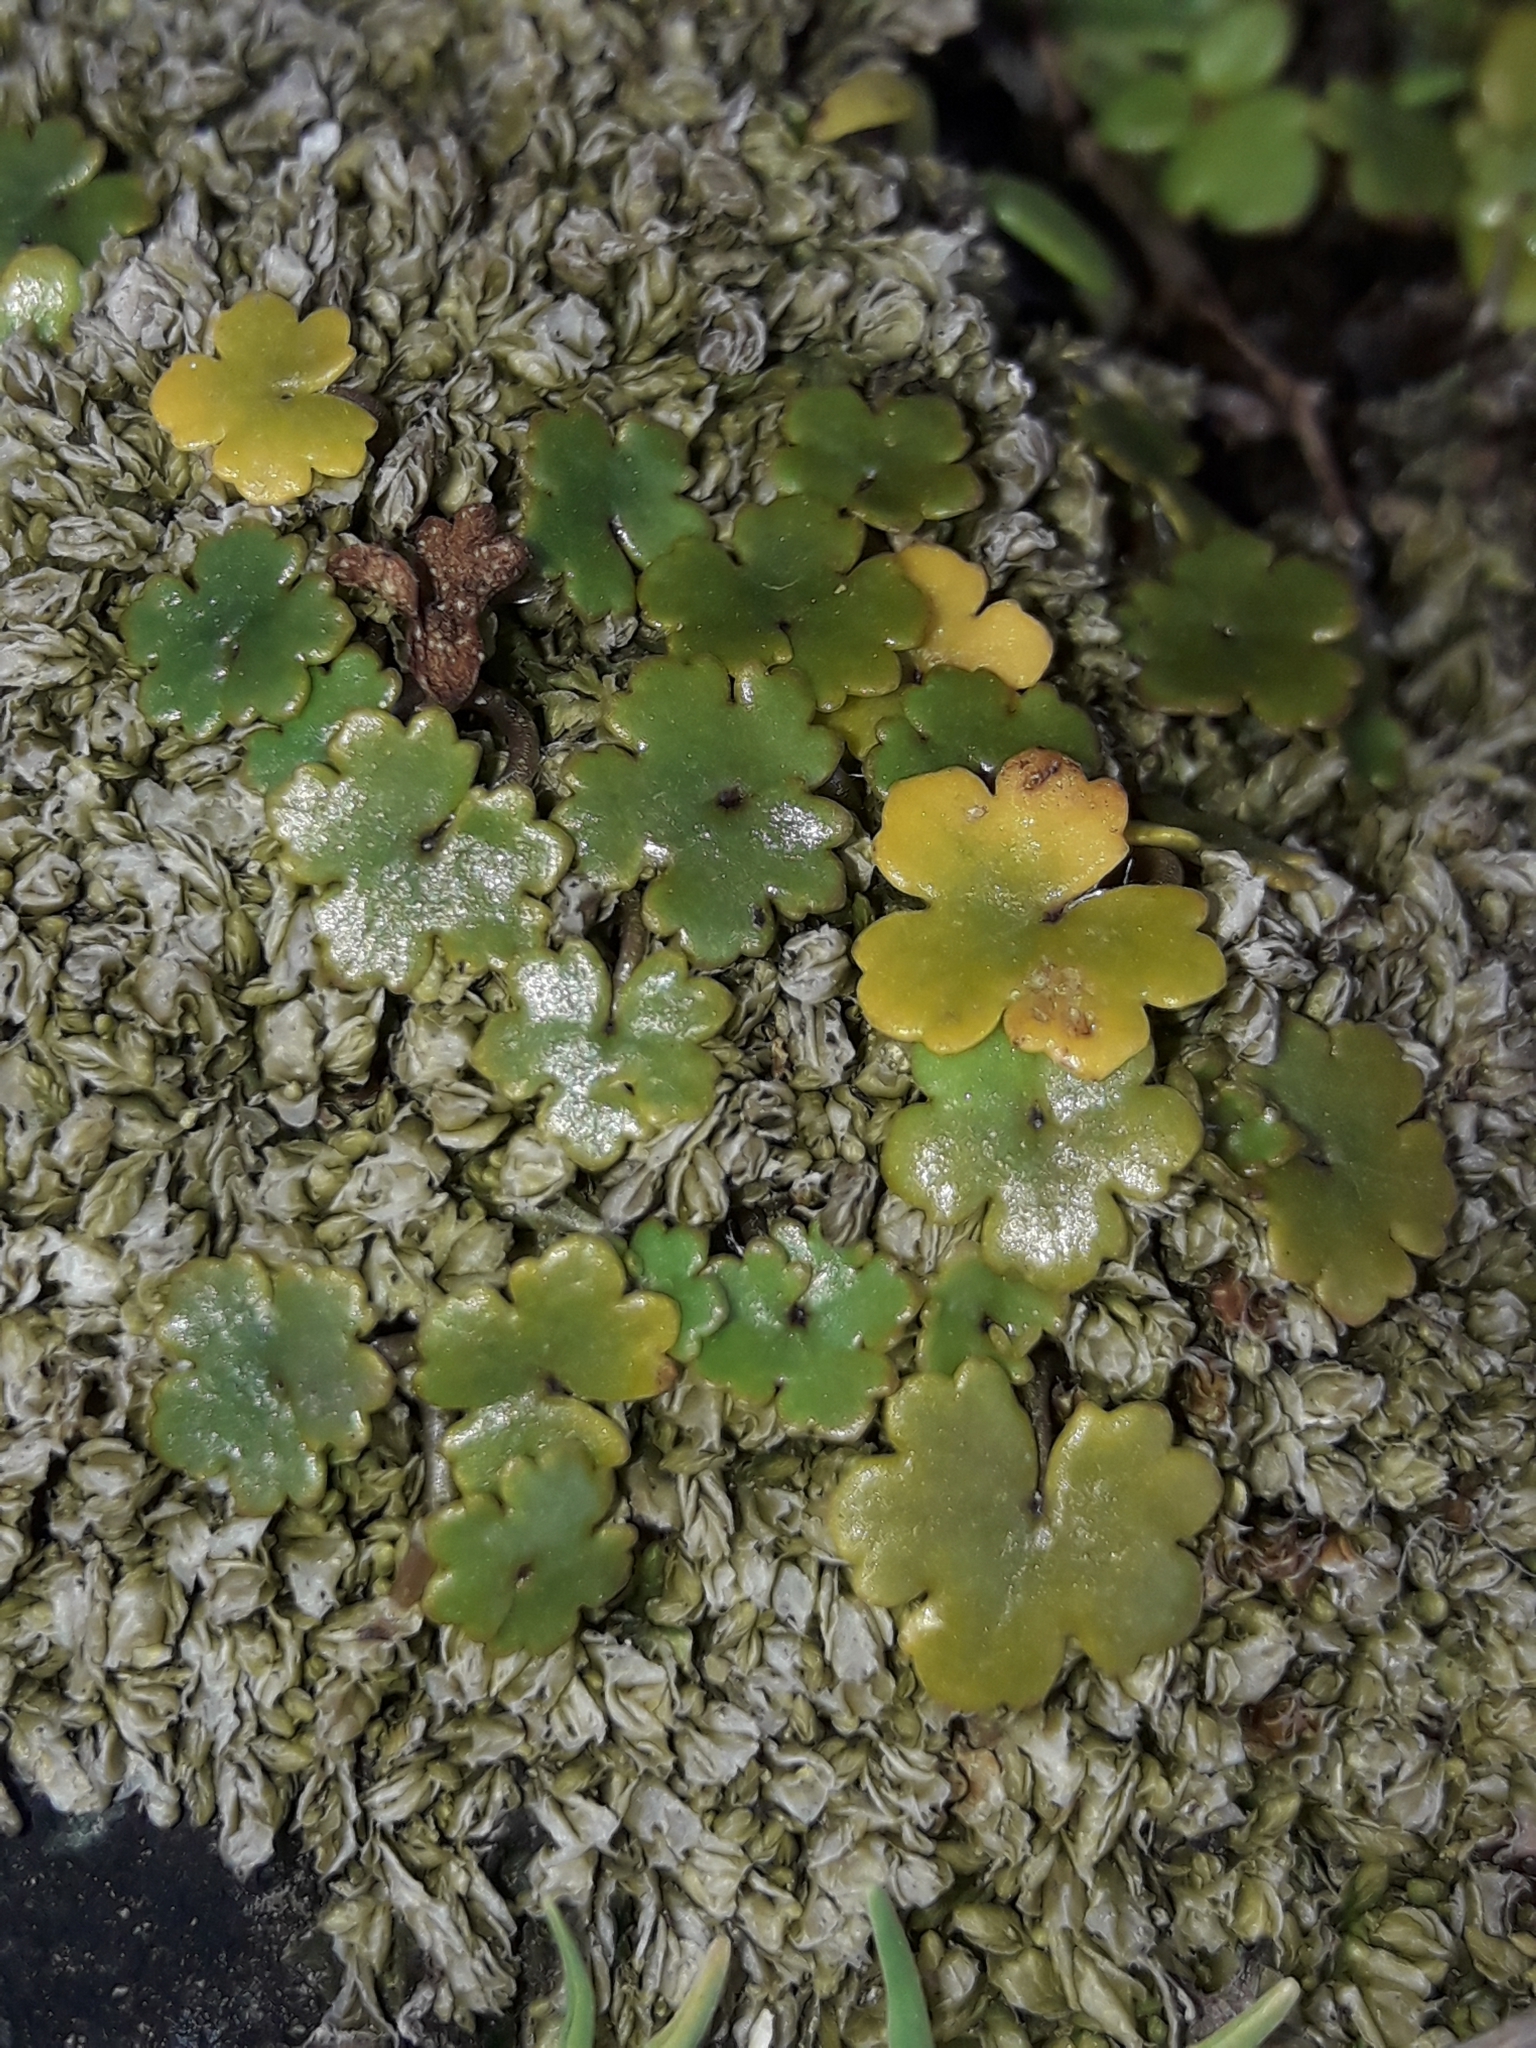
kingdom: Plantae
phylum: Tracheophyta
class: Magnoliopsida
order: Apiales
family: Araliaceae
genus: Hydrocotyle
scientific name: Hydrocotyle novae-zeelandiae
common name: New zealand pennywort
